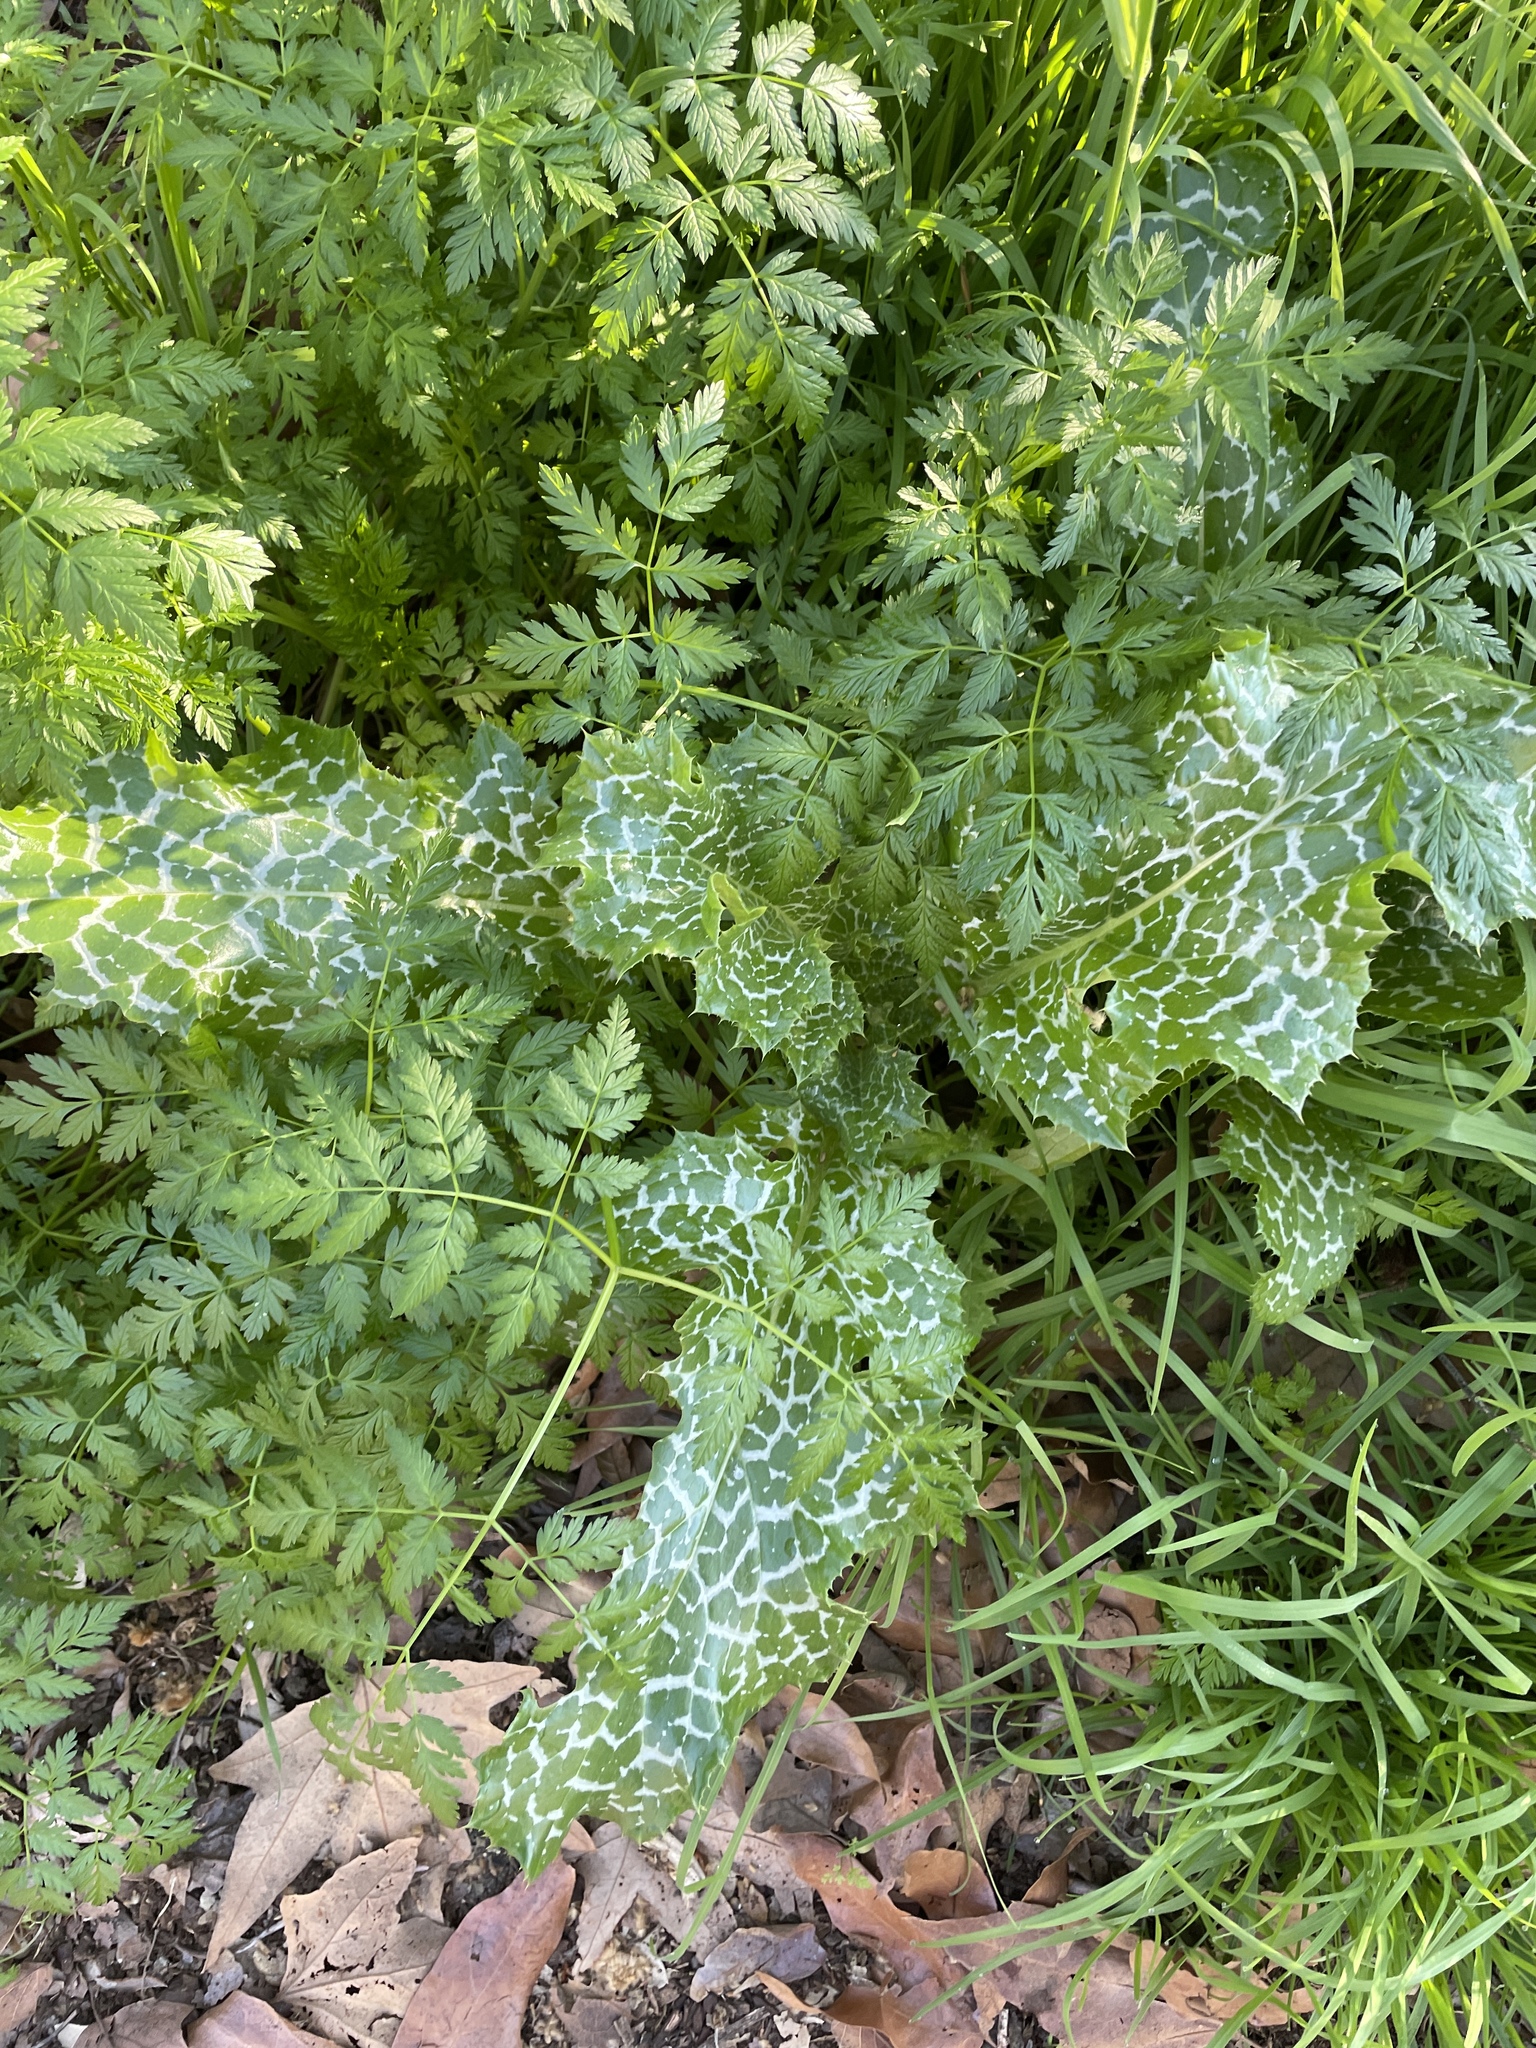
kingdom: Plantae
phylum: Tracheophyta
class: Magnoliopsida
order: Asterales
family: Asteraceae
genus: Silybum
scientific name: Silybum marianum
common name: Milk thistle
